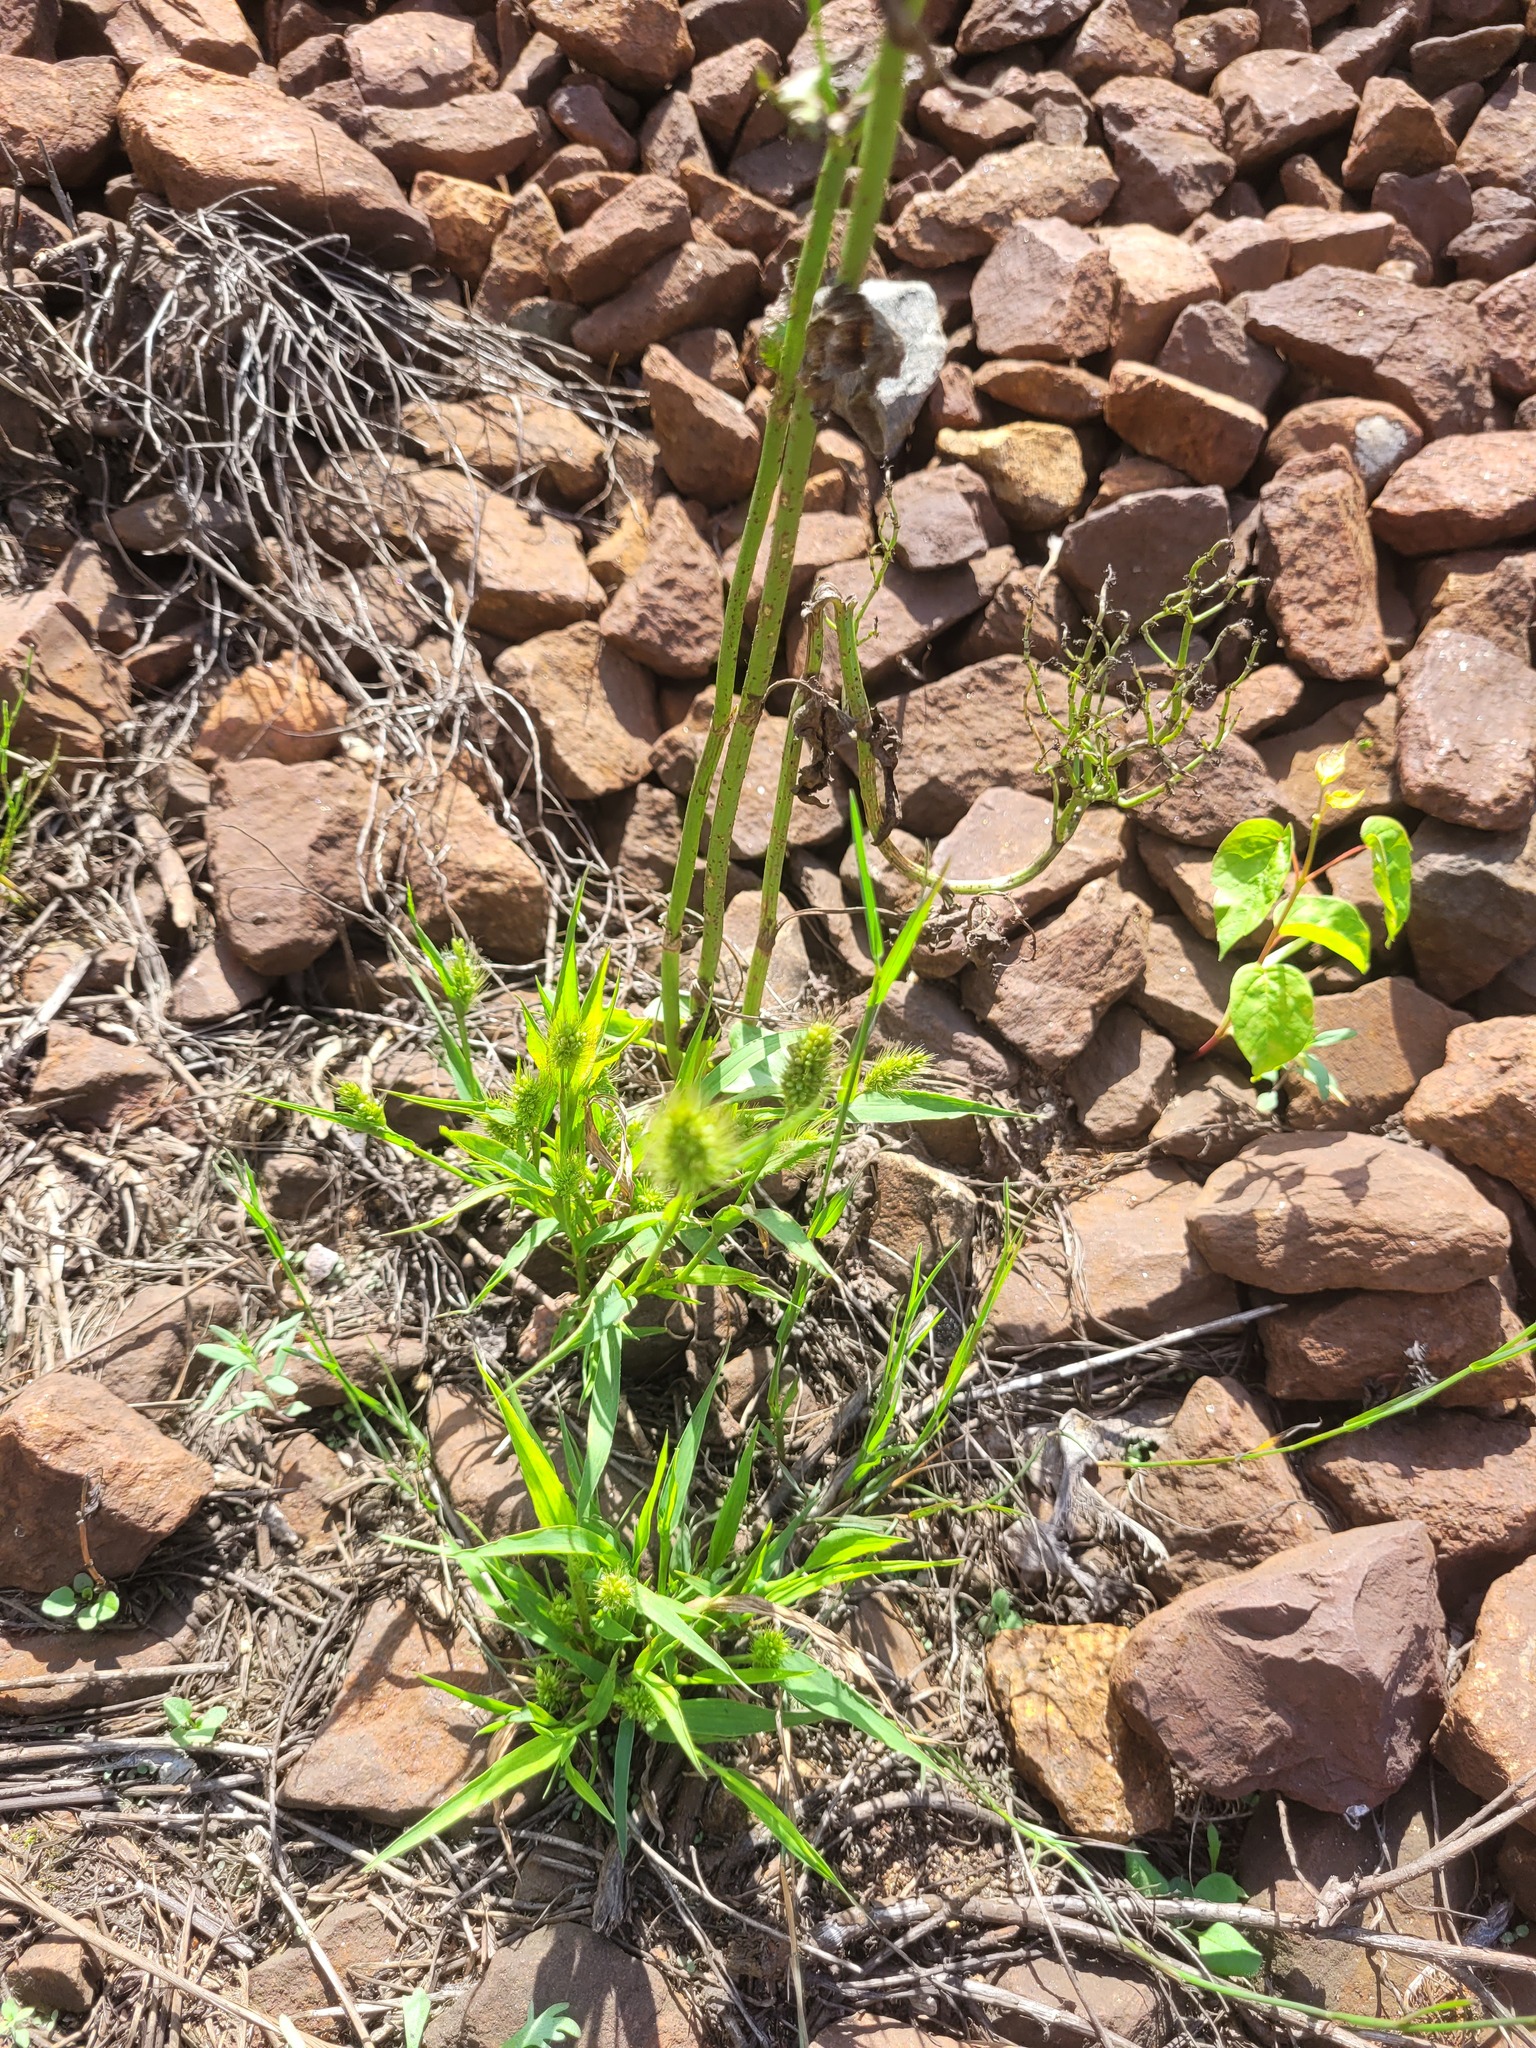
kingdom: Plantae
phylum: Tracheophyta
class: Liliopsida
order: Poales
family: Poaceae
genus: Setaria
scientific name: Setaria viridis
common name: Green bristlegrass
